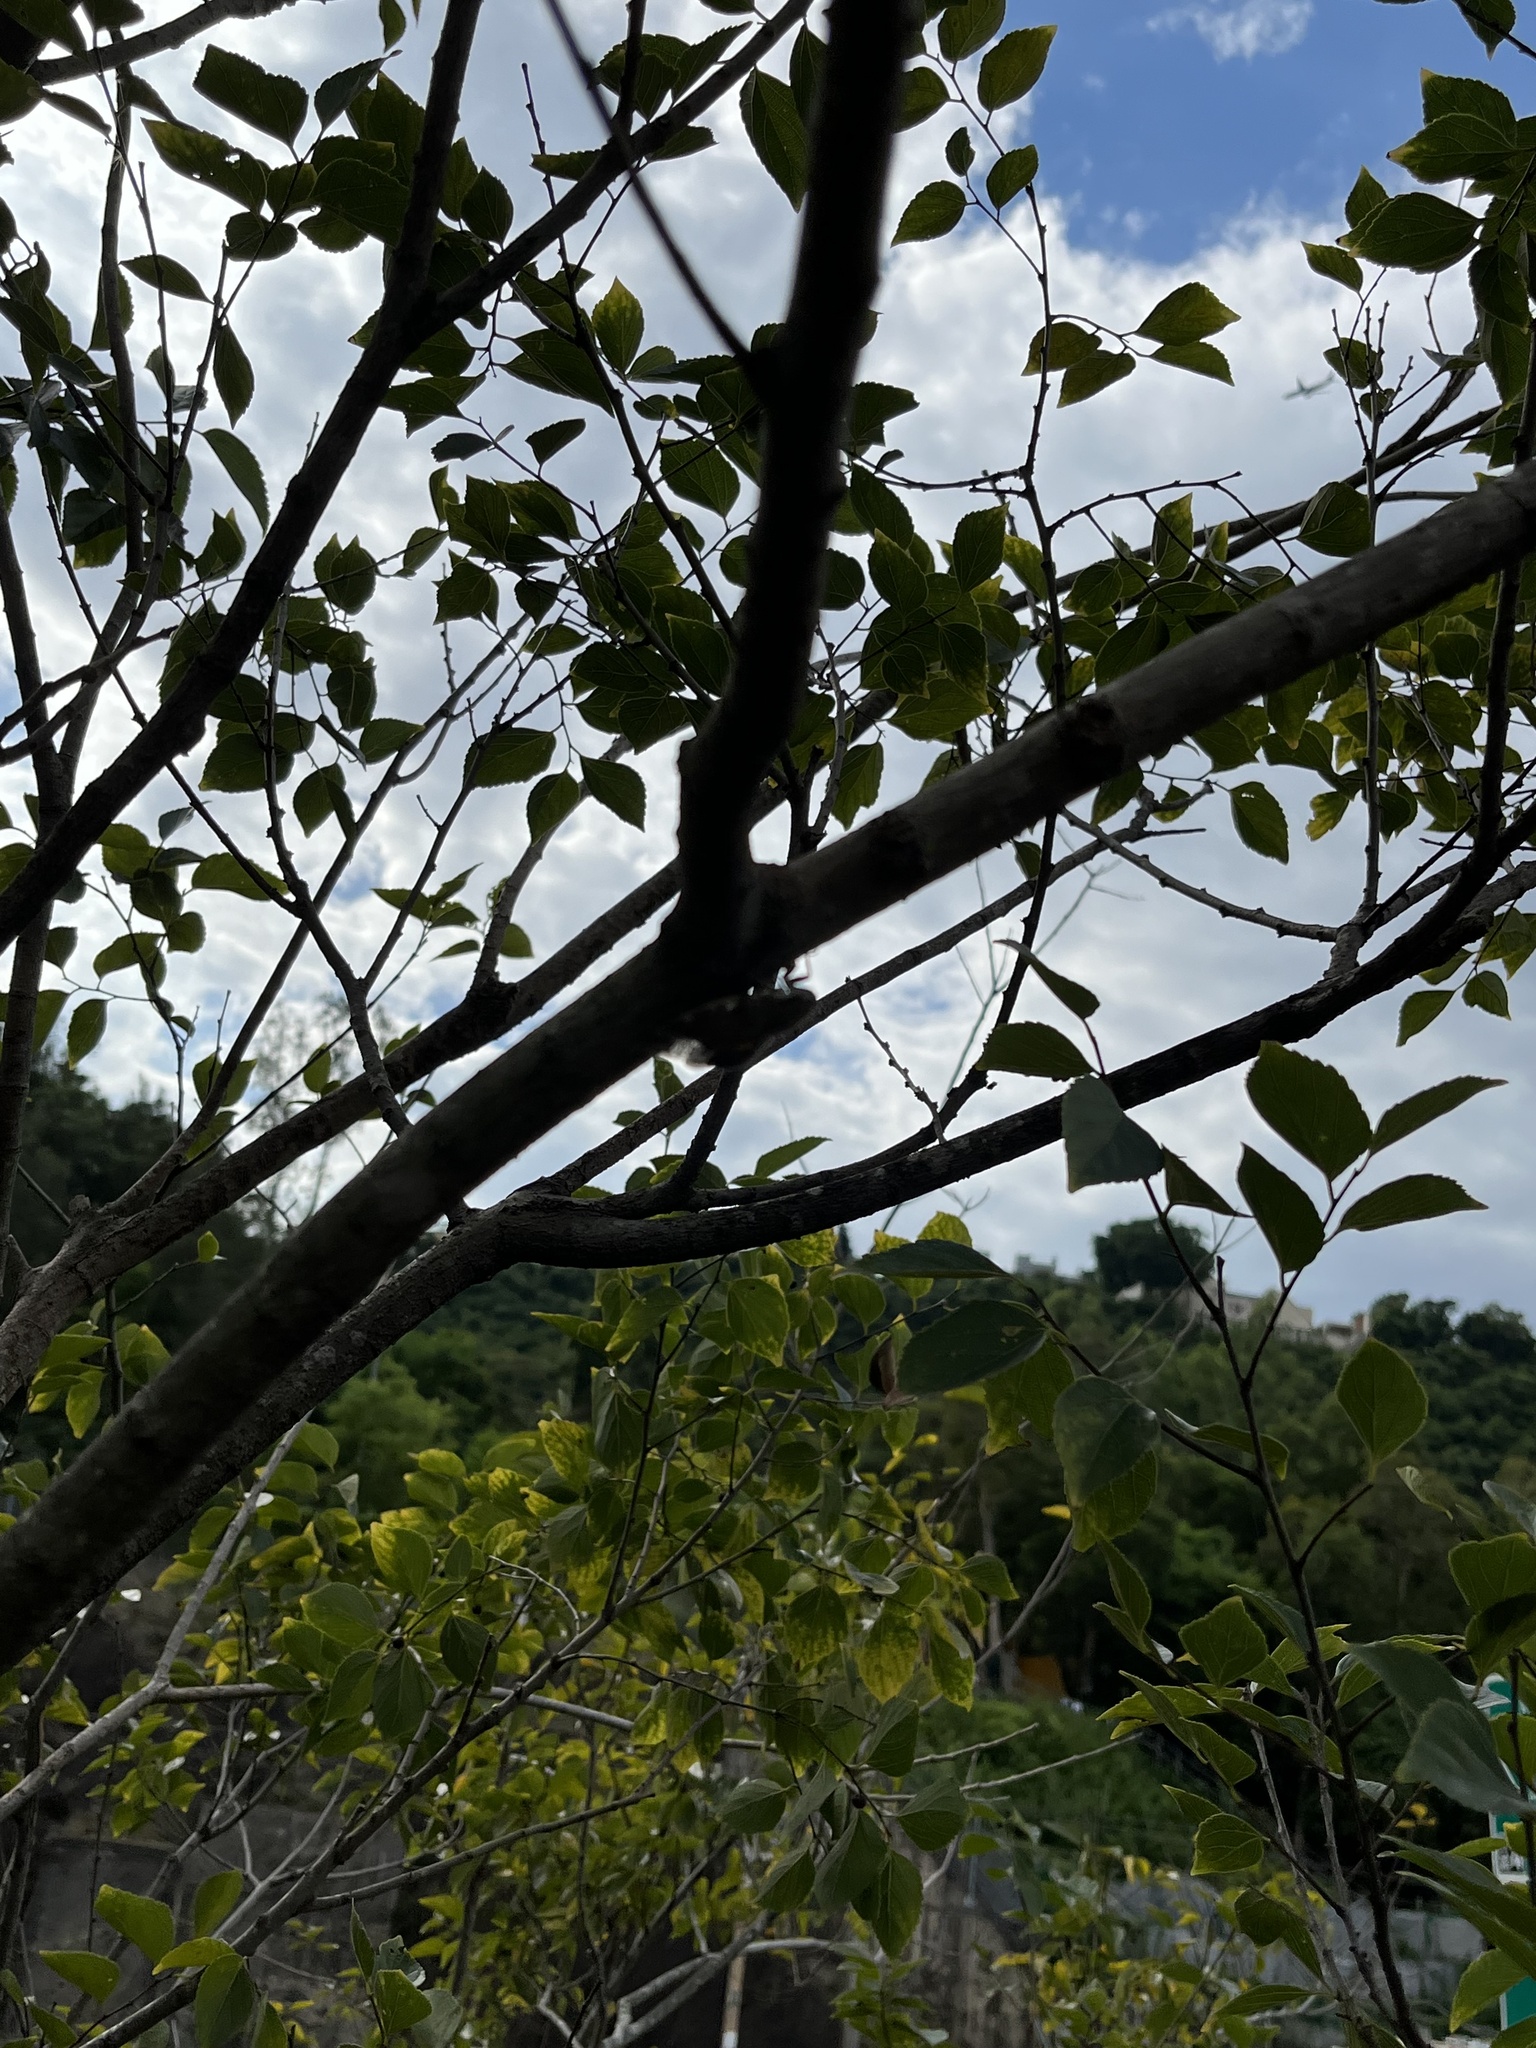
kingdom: Animalia
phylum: Arthropoda
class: Insecta
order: Hemiptera
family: Cicadidae
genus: Platypleura
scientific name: Platypleura hilpa
